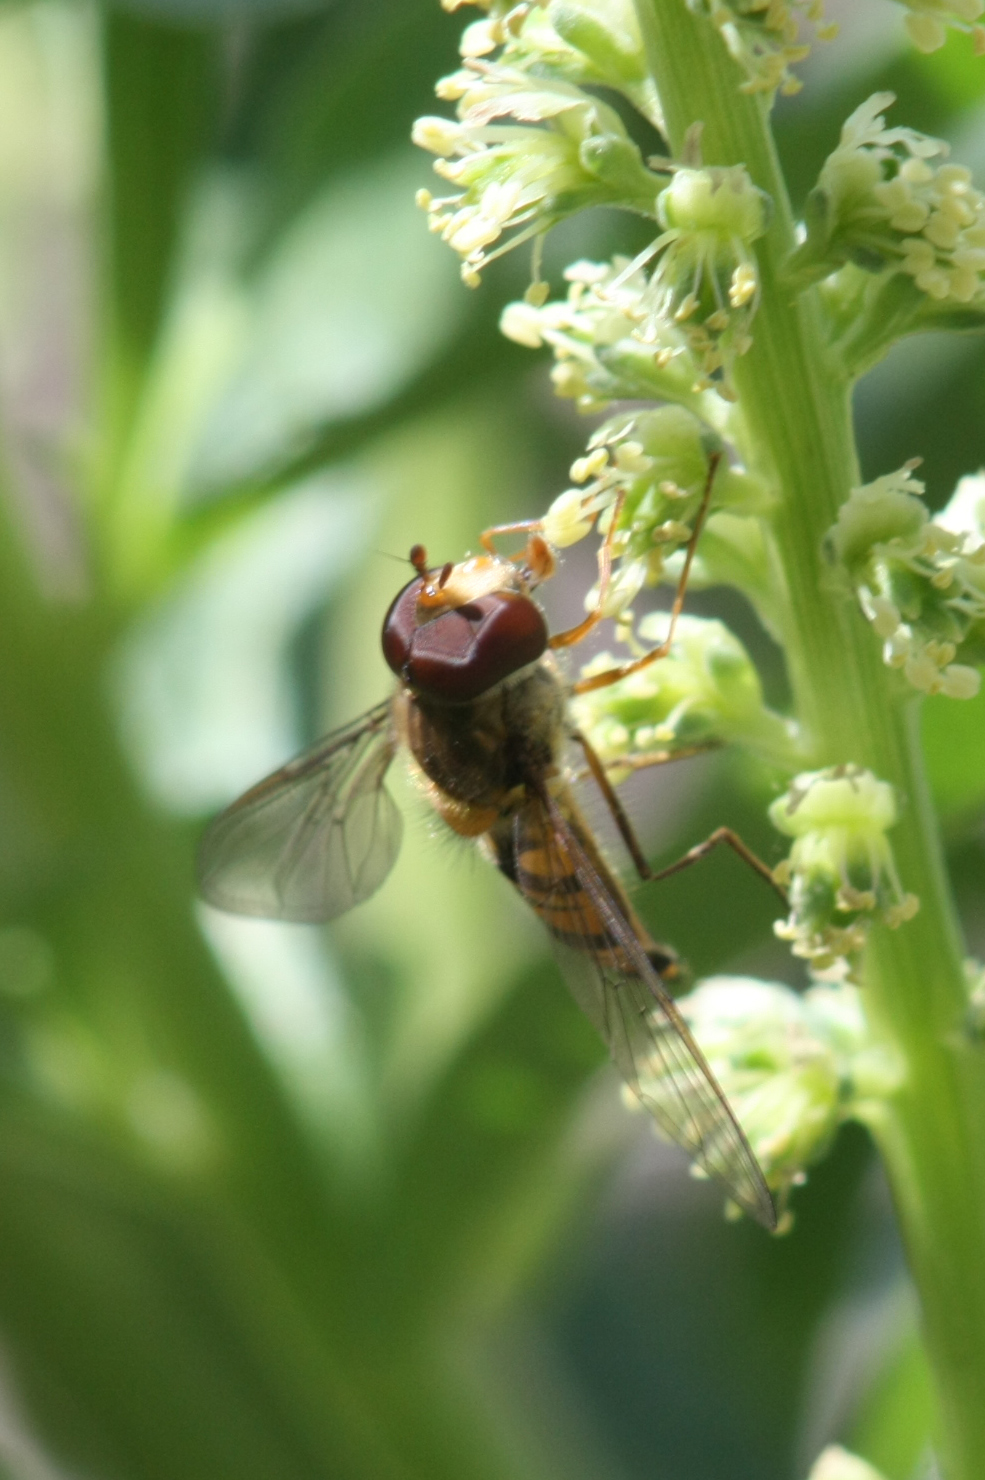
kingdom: Animalia
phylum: Arthropoda
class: Insecta
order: Diptera
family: Syrphidae
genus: Episyrphus
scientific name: Episyrphus balteatus
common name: Marmalade hoverfly
